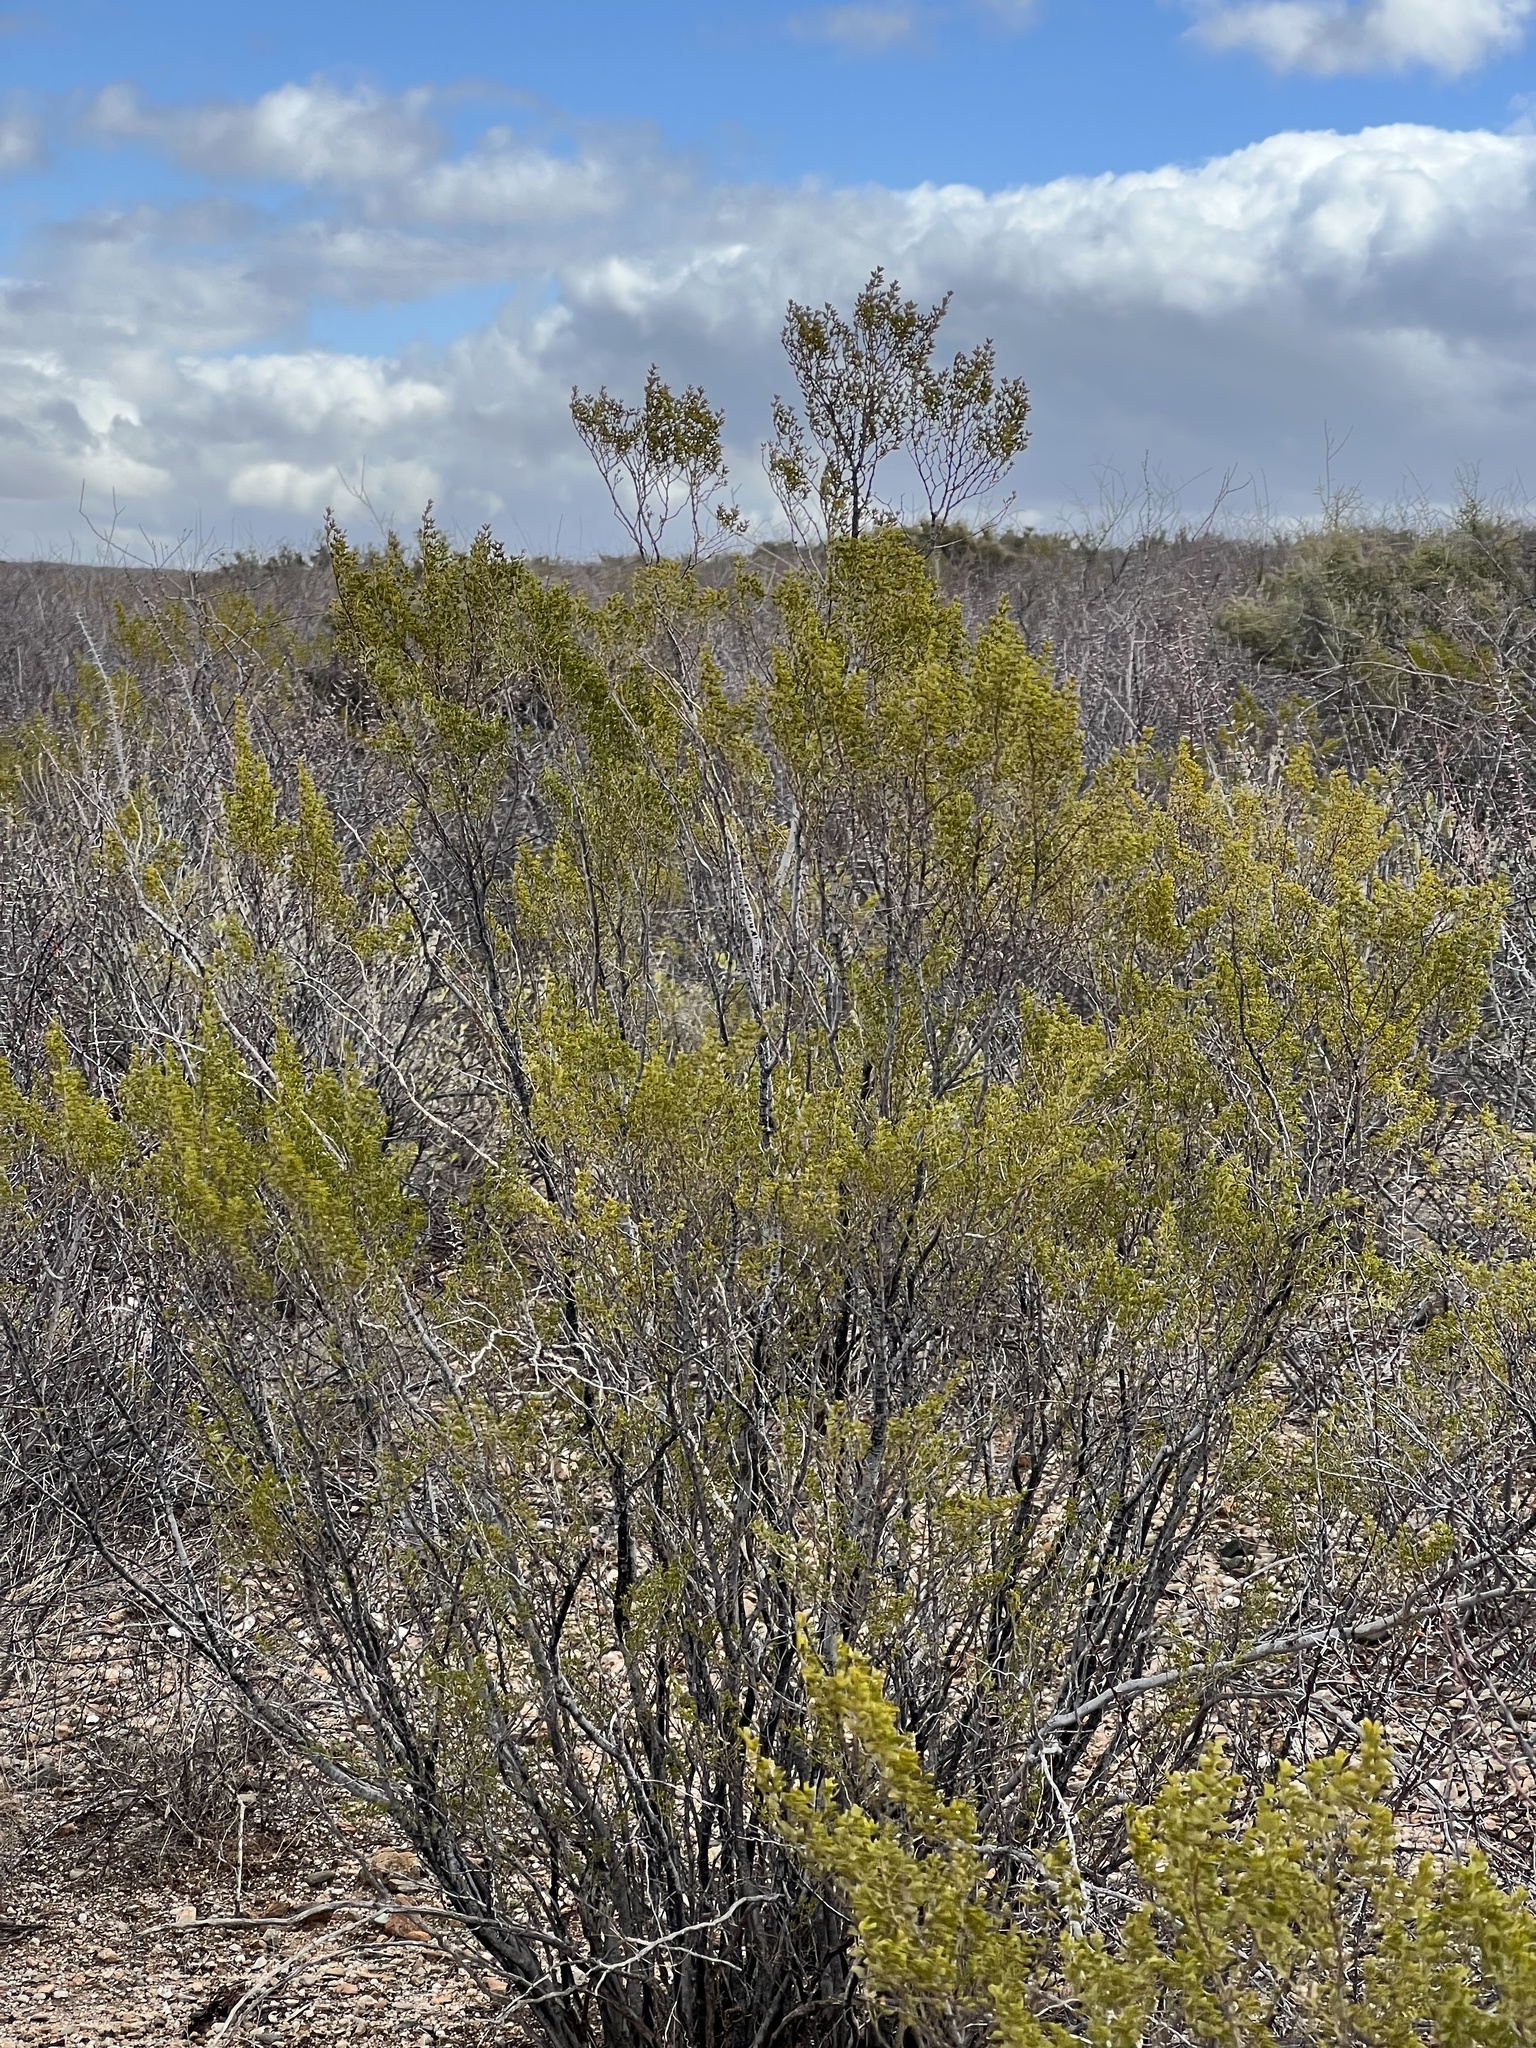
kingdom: Plantae
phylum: Tracheophyta
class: Magnoliopsida
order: Zygophyllales
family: Zygophyllaceae
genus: Larrea
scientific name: Larrea tridentata
